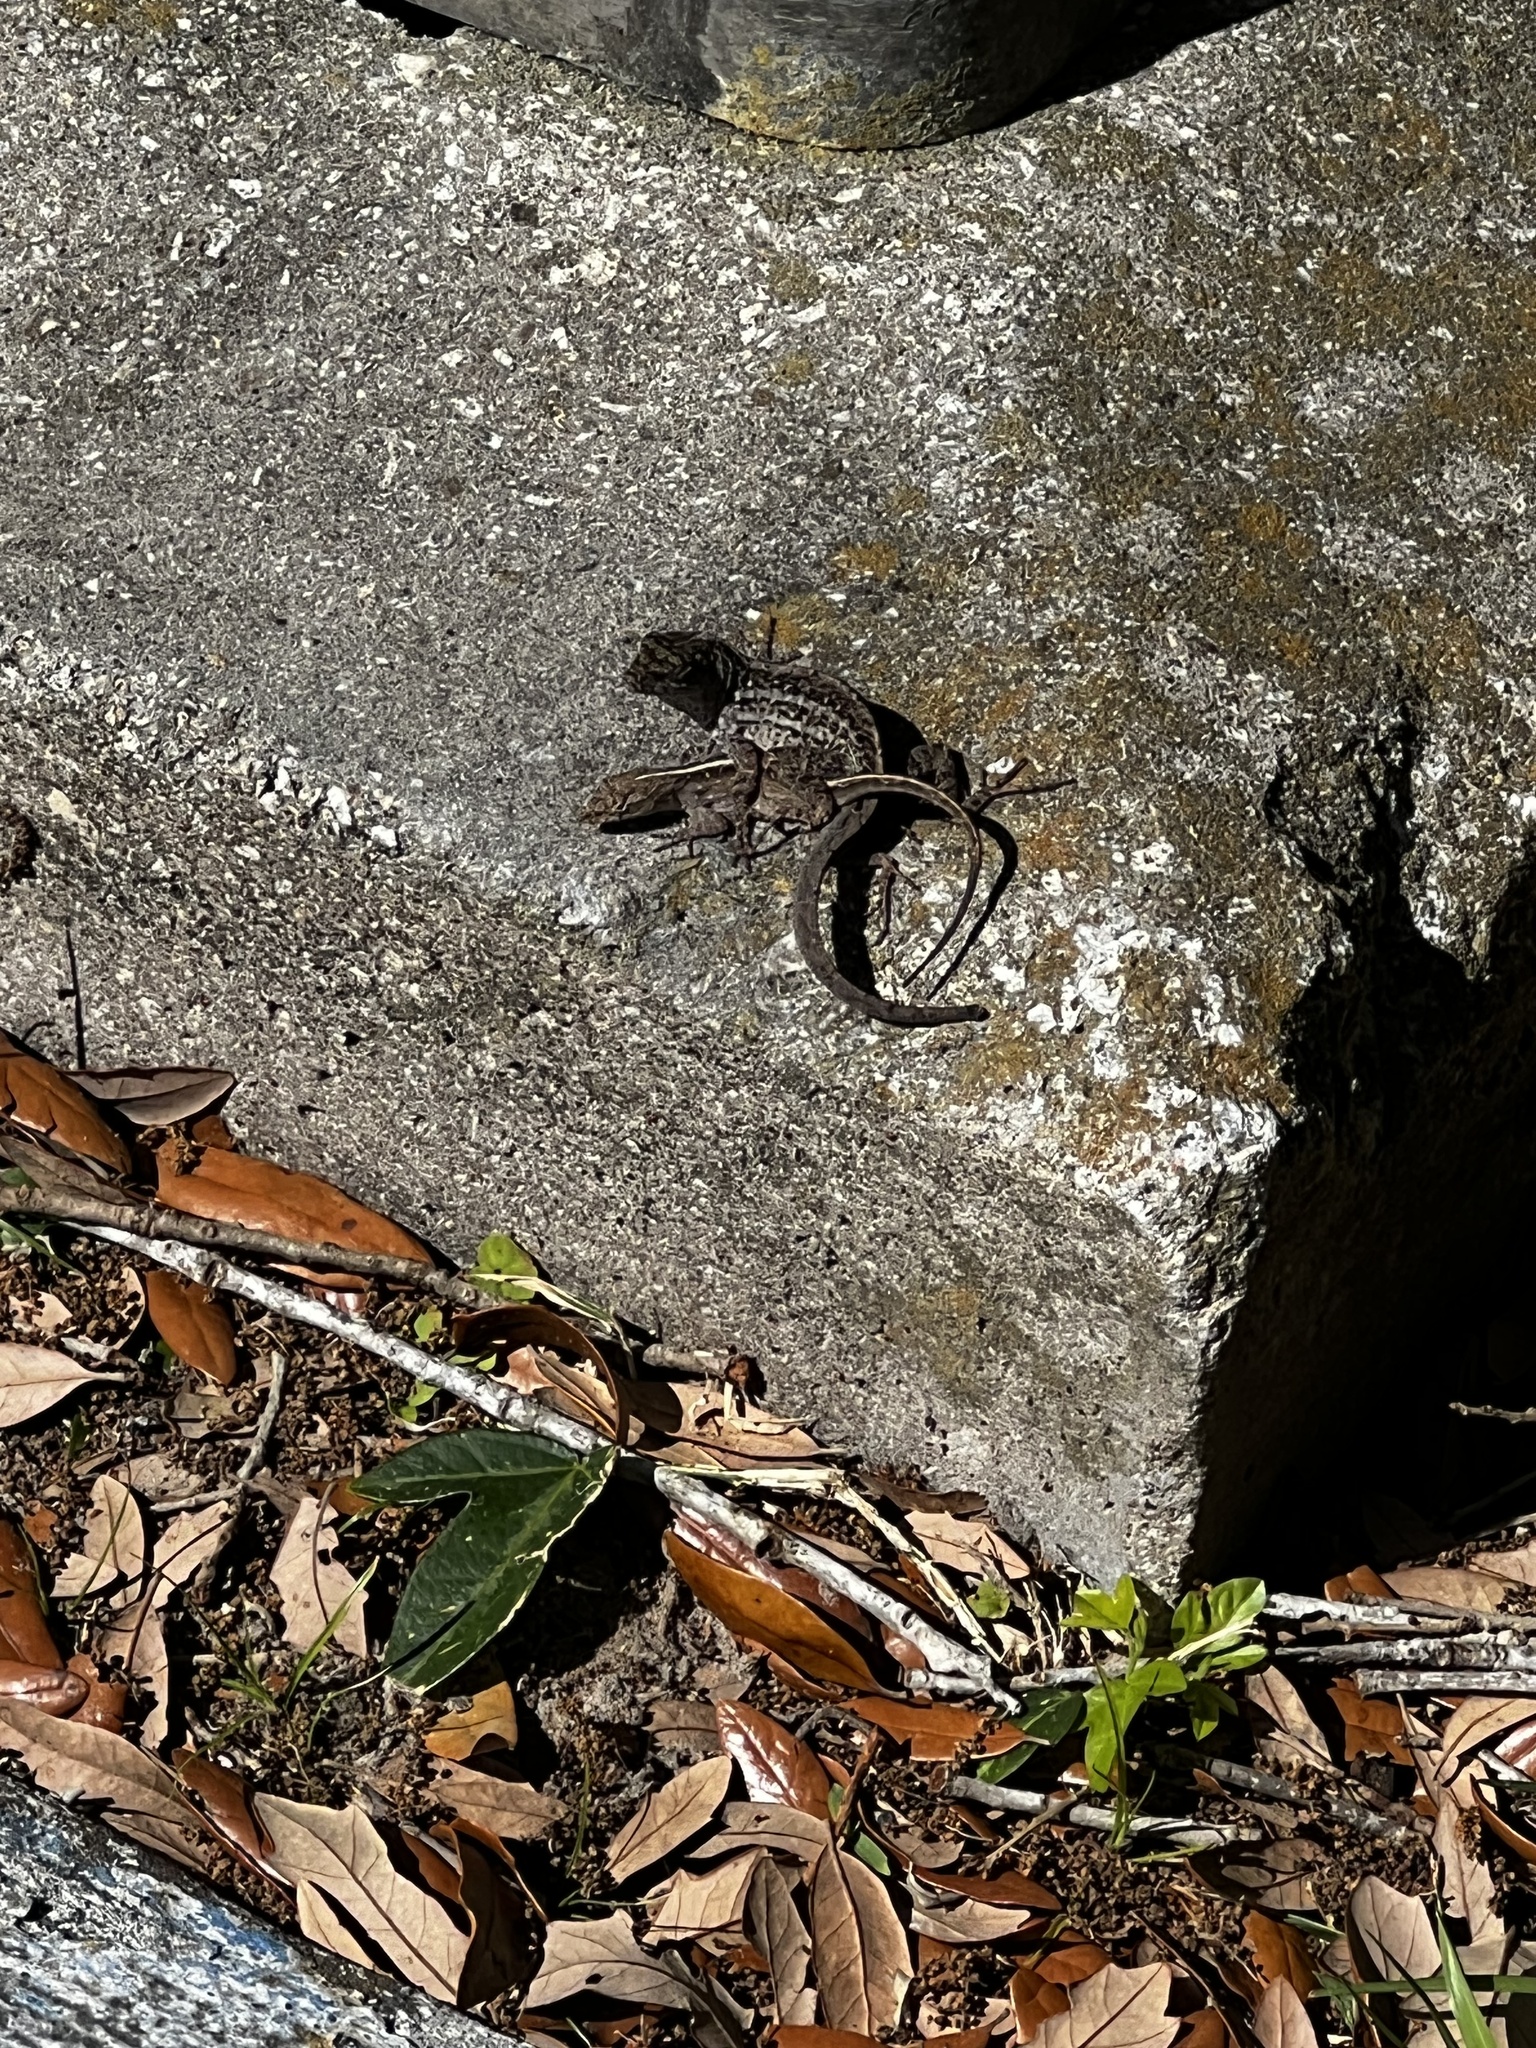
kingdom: Animalia
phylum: Chordata
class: Squamata
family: Dactyloidae
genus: Anolis
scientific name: Anolis sagrei
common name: Brown anole
